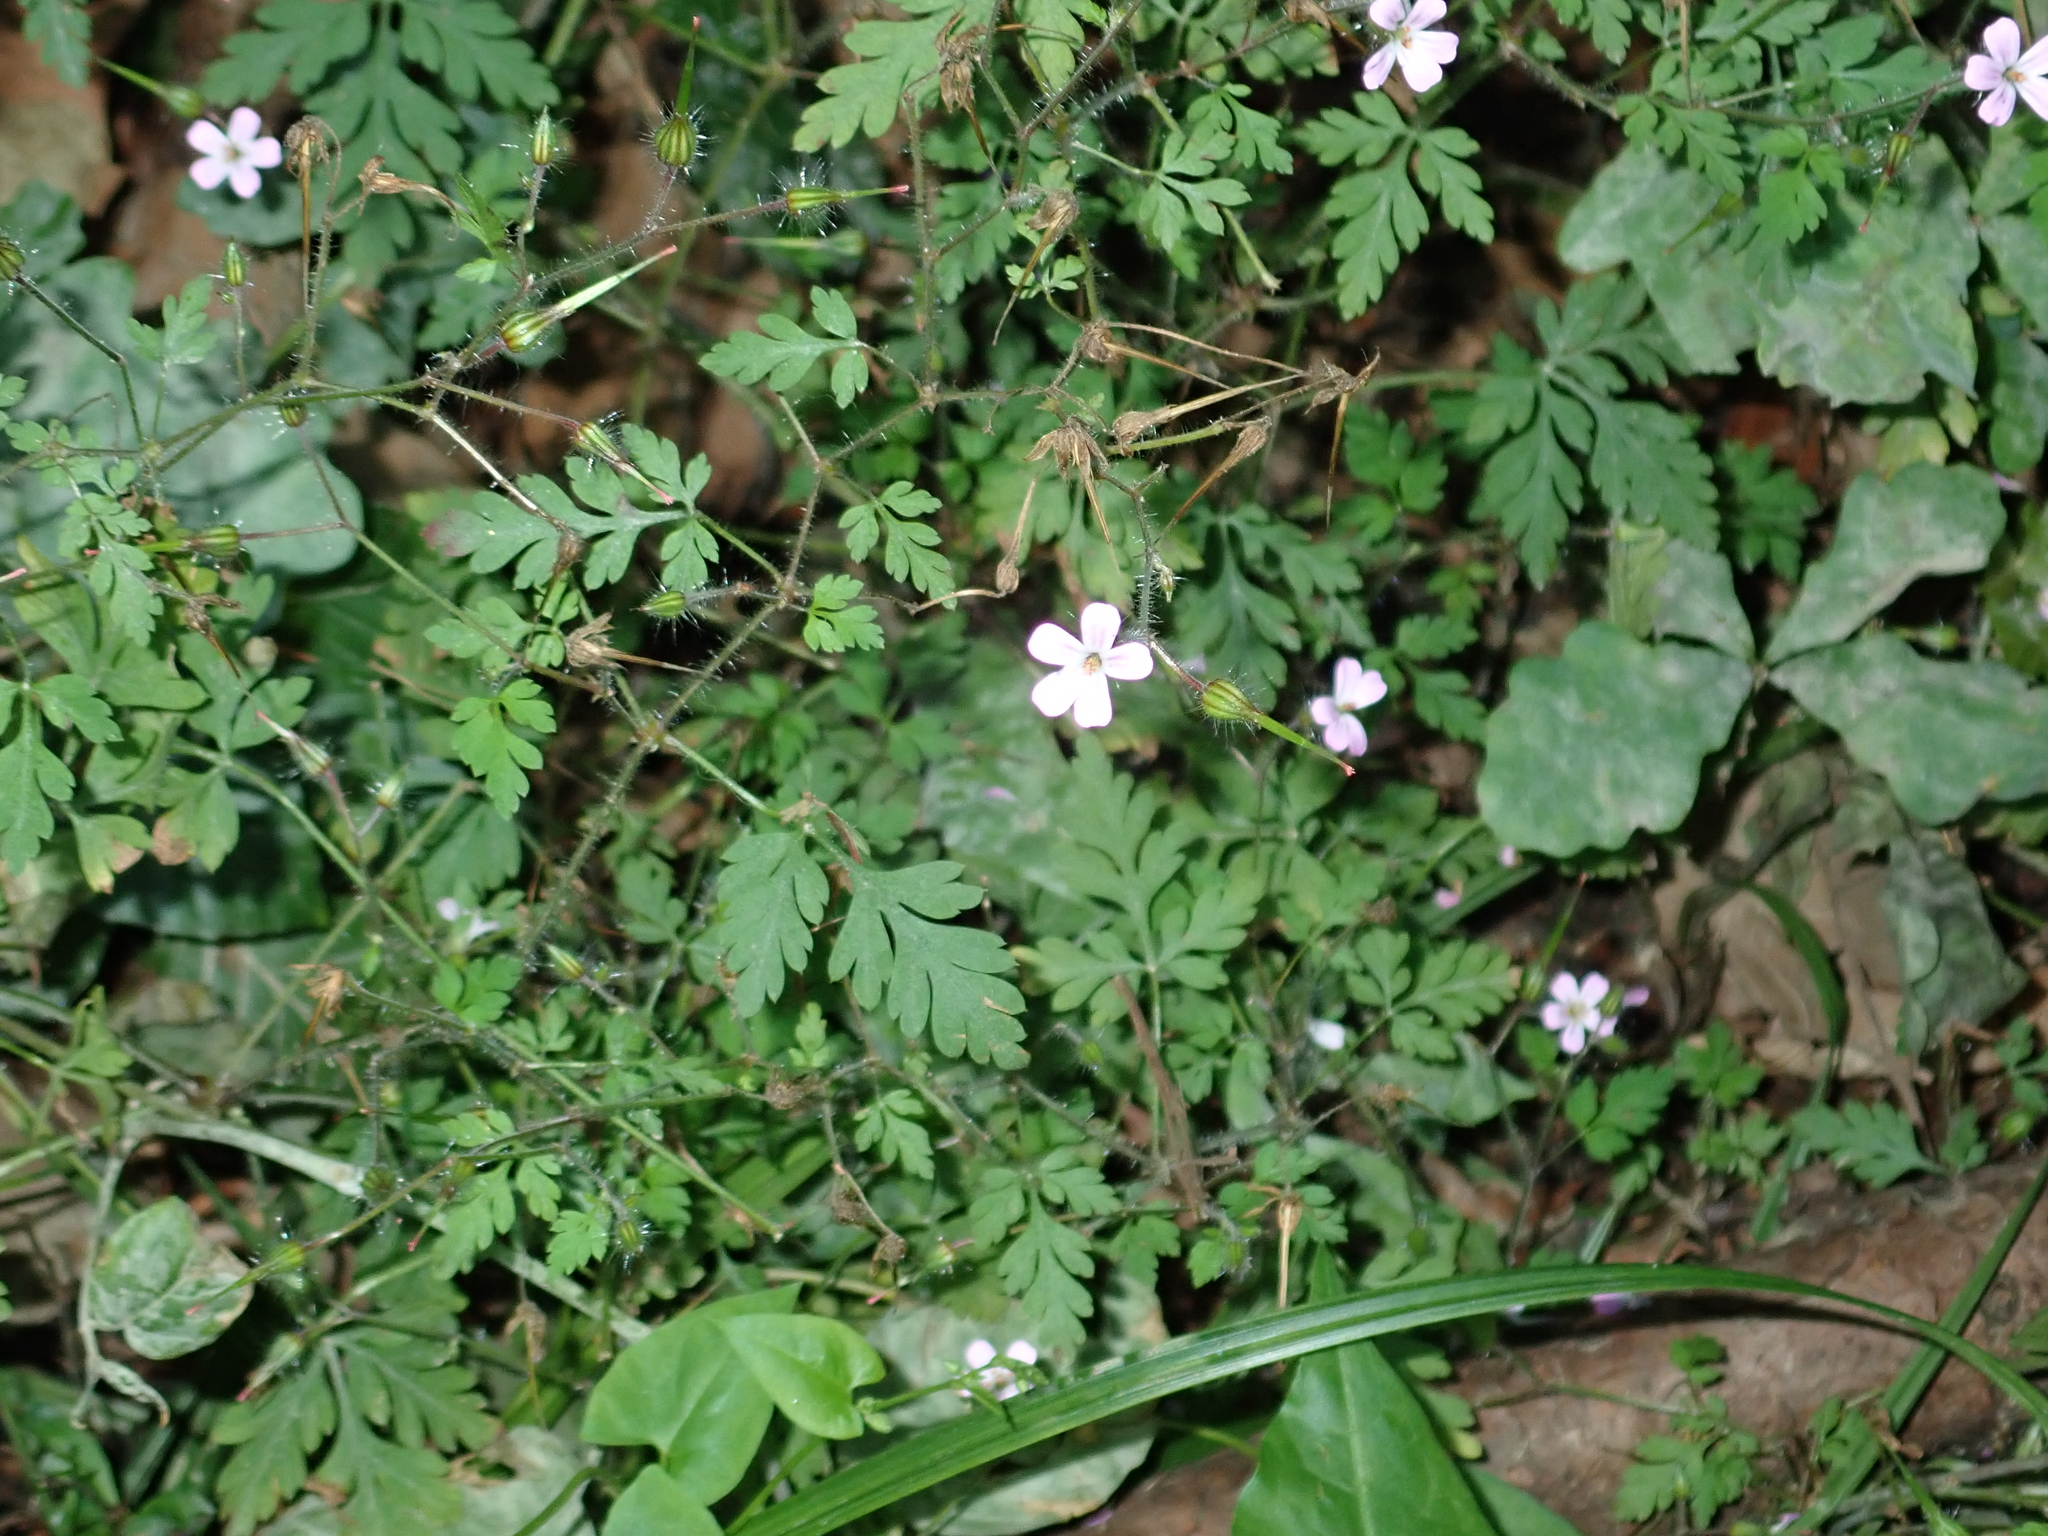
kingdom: Plantae
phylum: Tracheophyta
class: Magnoliopsida
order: Geraniales
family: Geraniaceae
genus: Geranium
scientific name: Geranium robertianum
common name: Herb-robert
